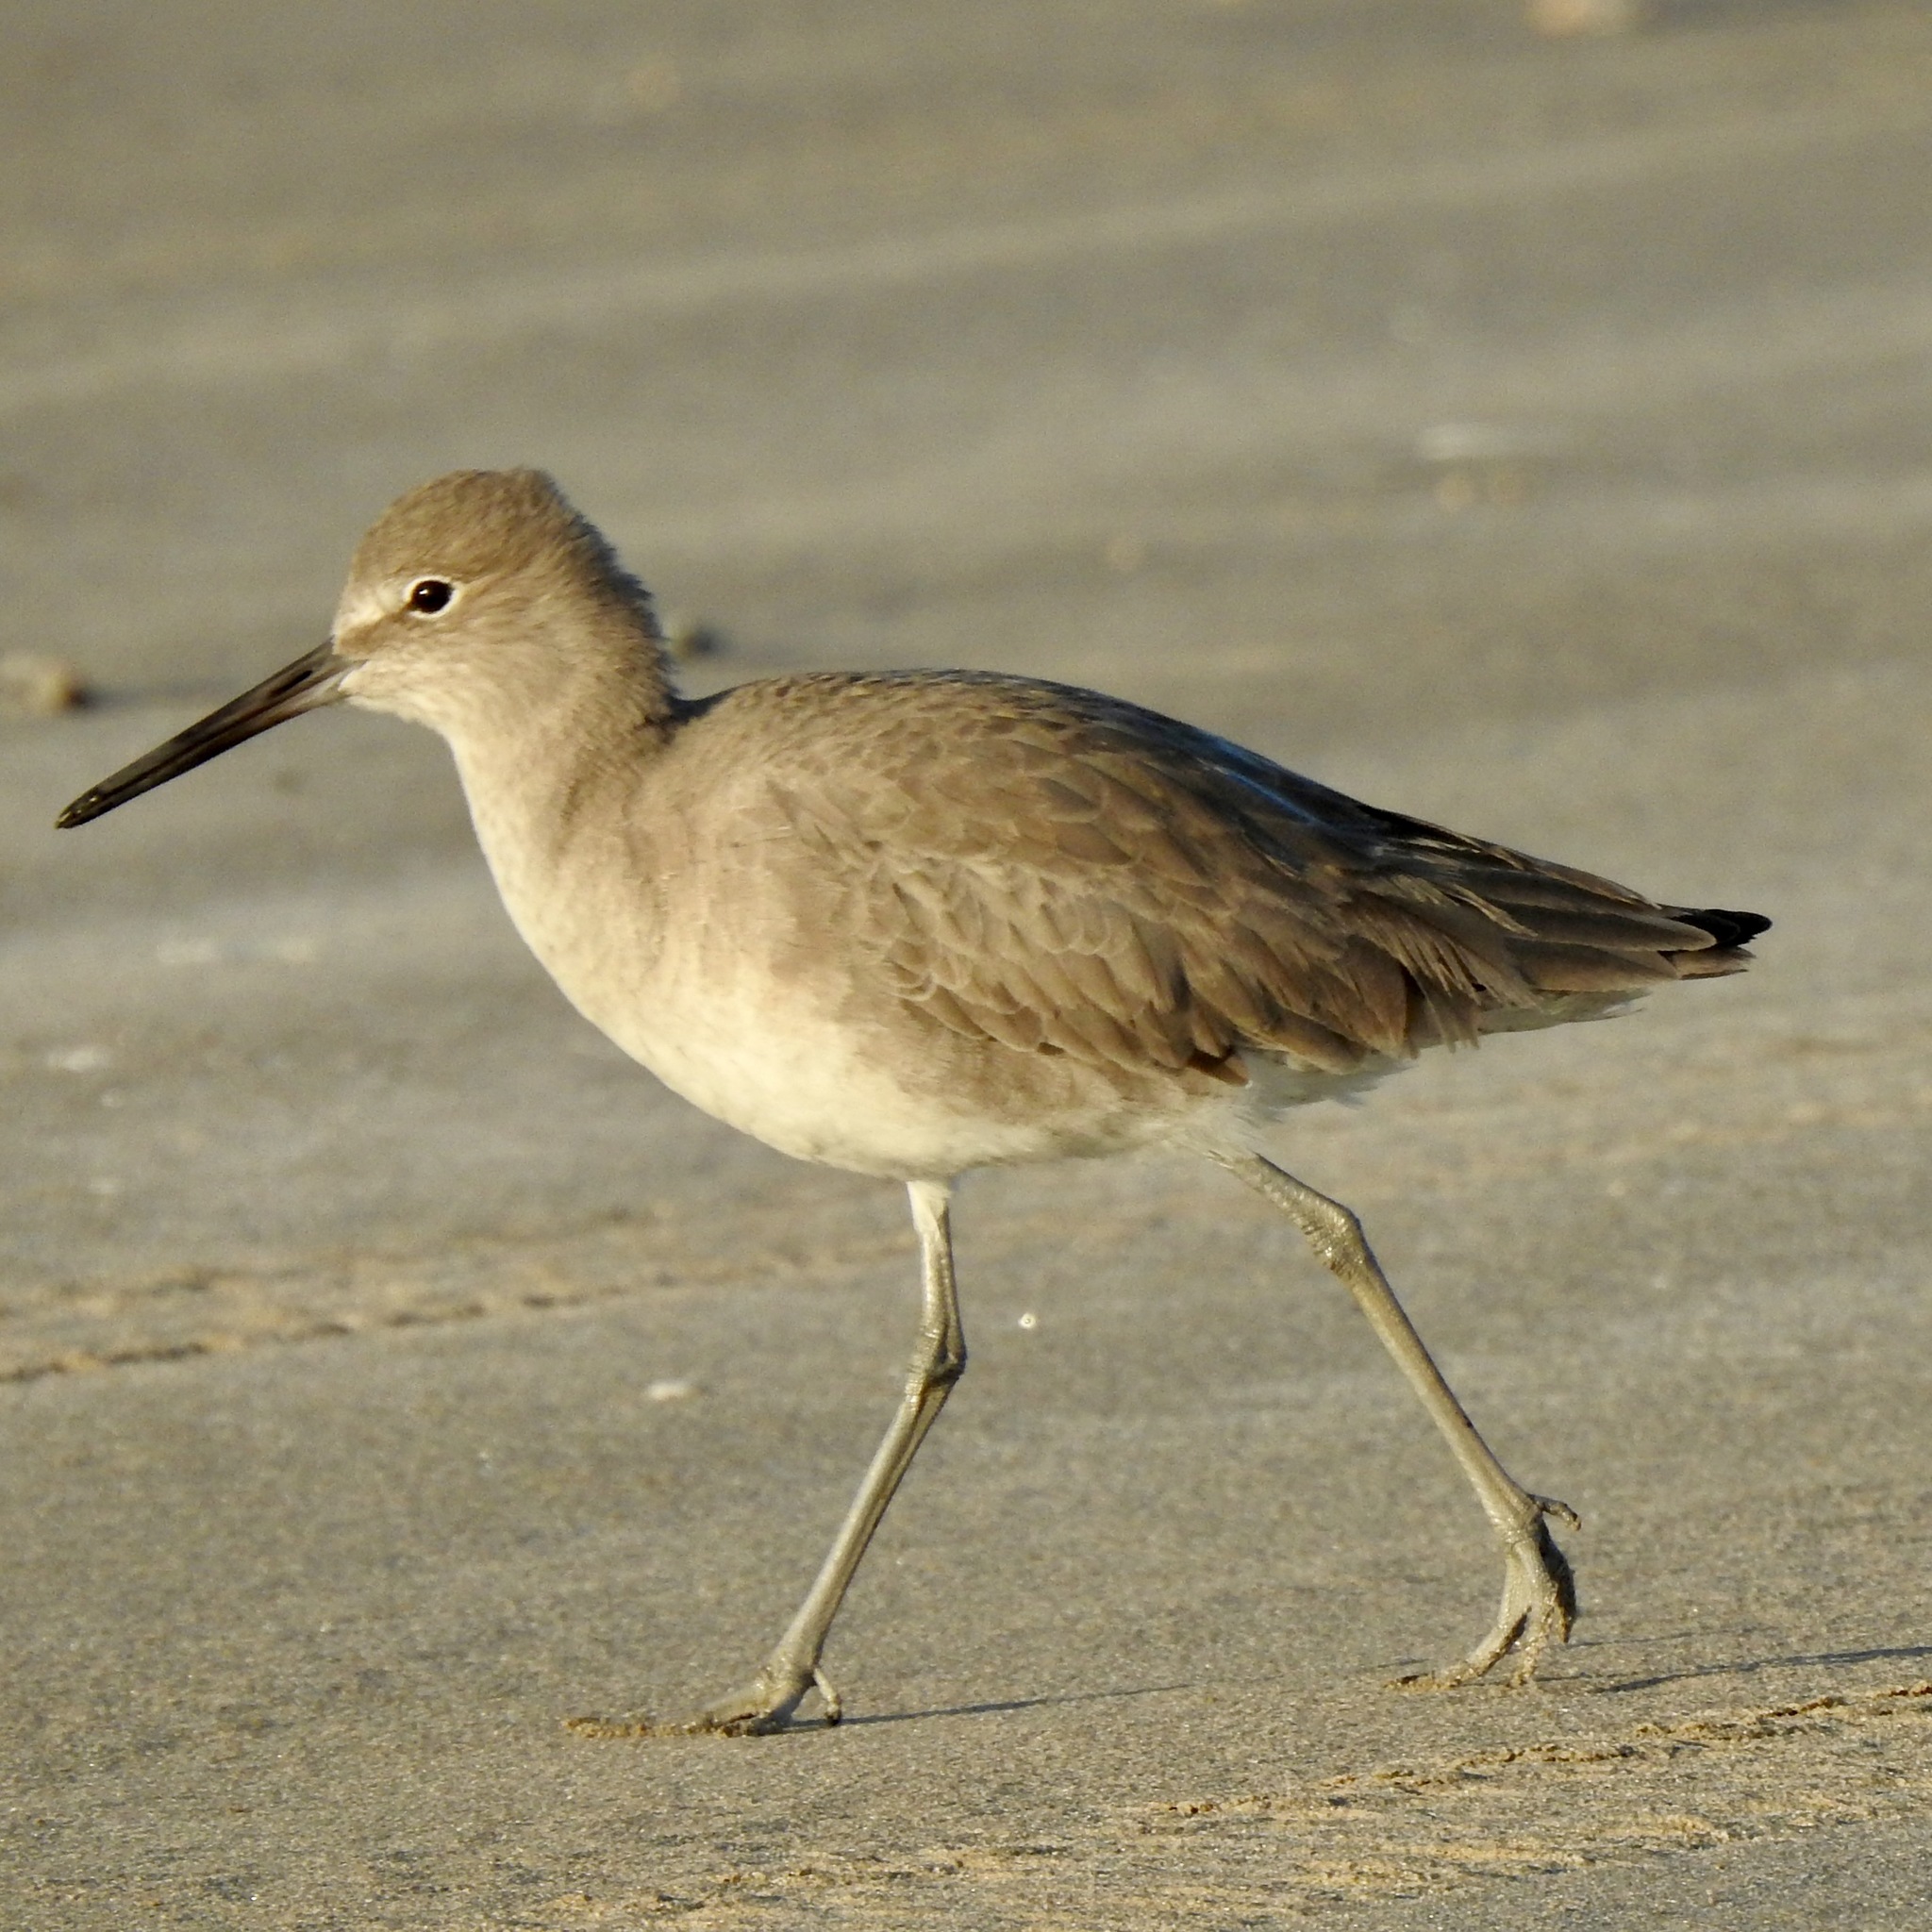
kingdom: Animalia
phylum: Chordata
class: Aves
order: Charadriiformes
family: Scolopacidae
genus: Tringa
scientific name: Tringa semipalmata
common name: Willet
